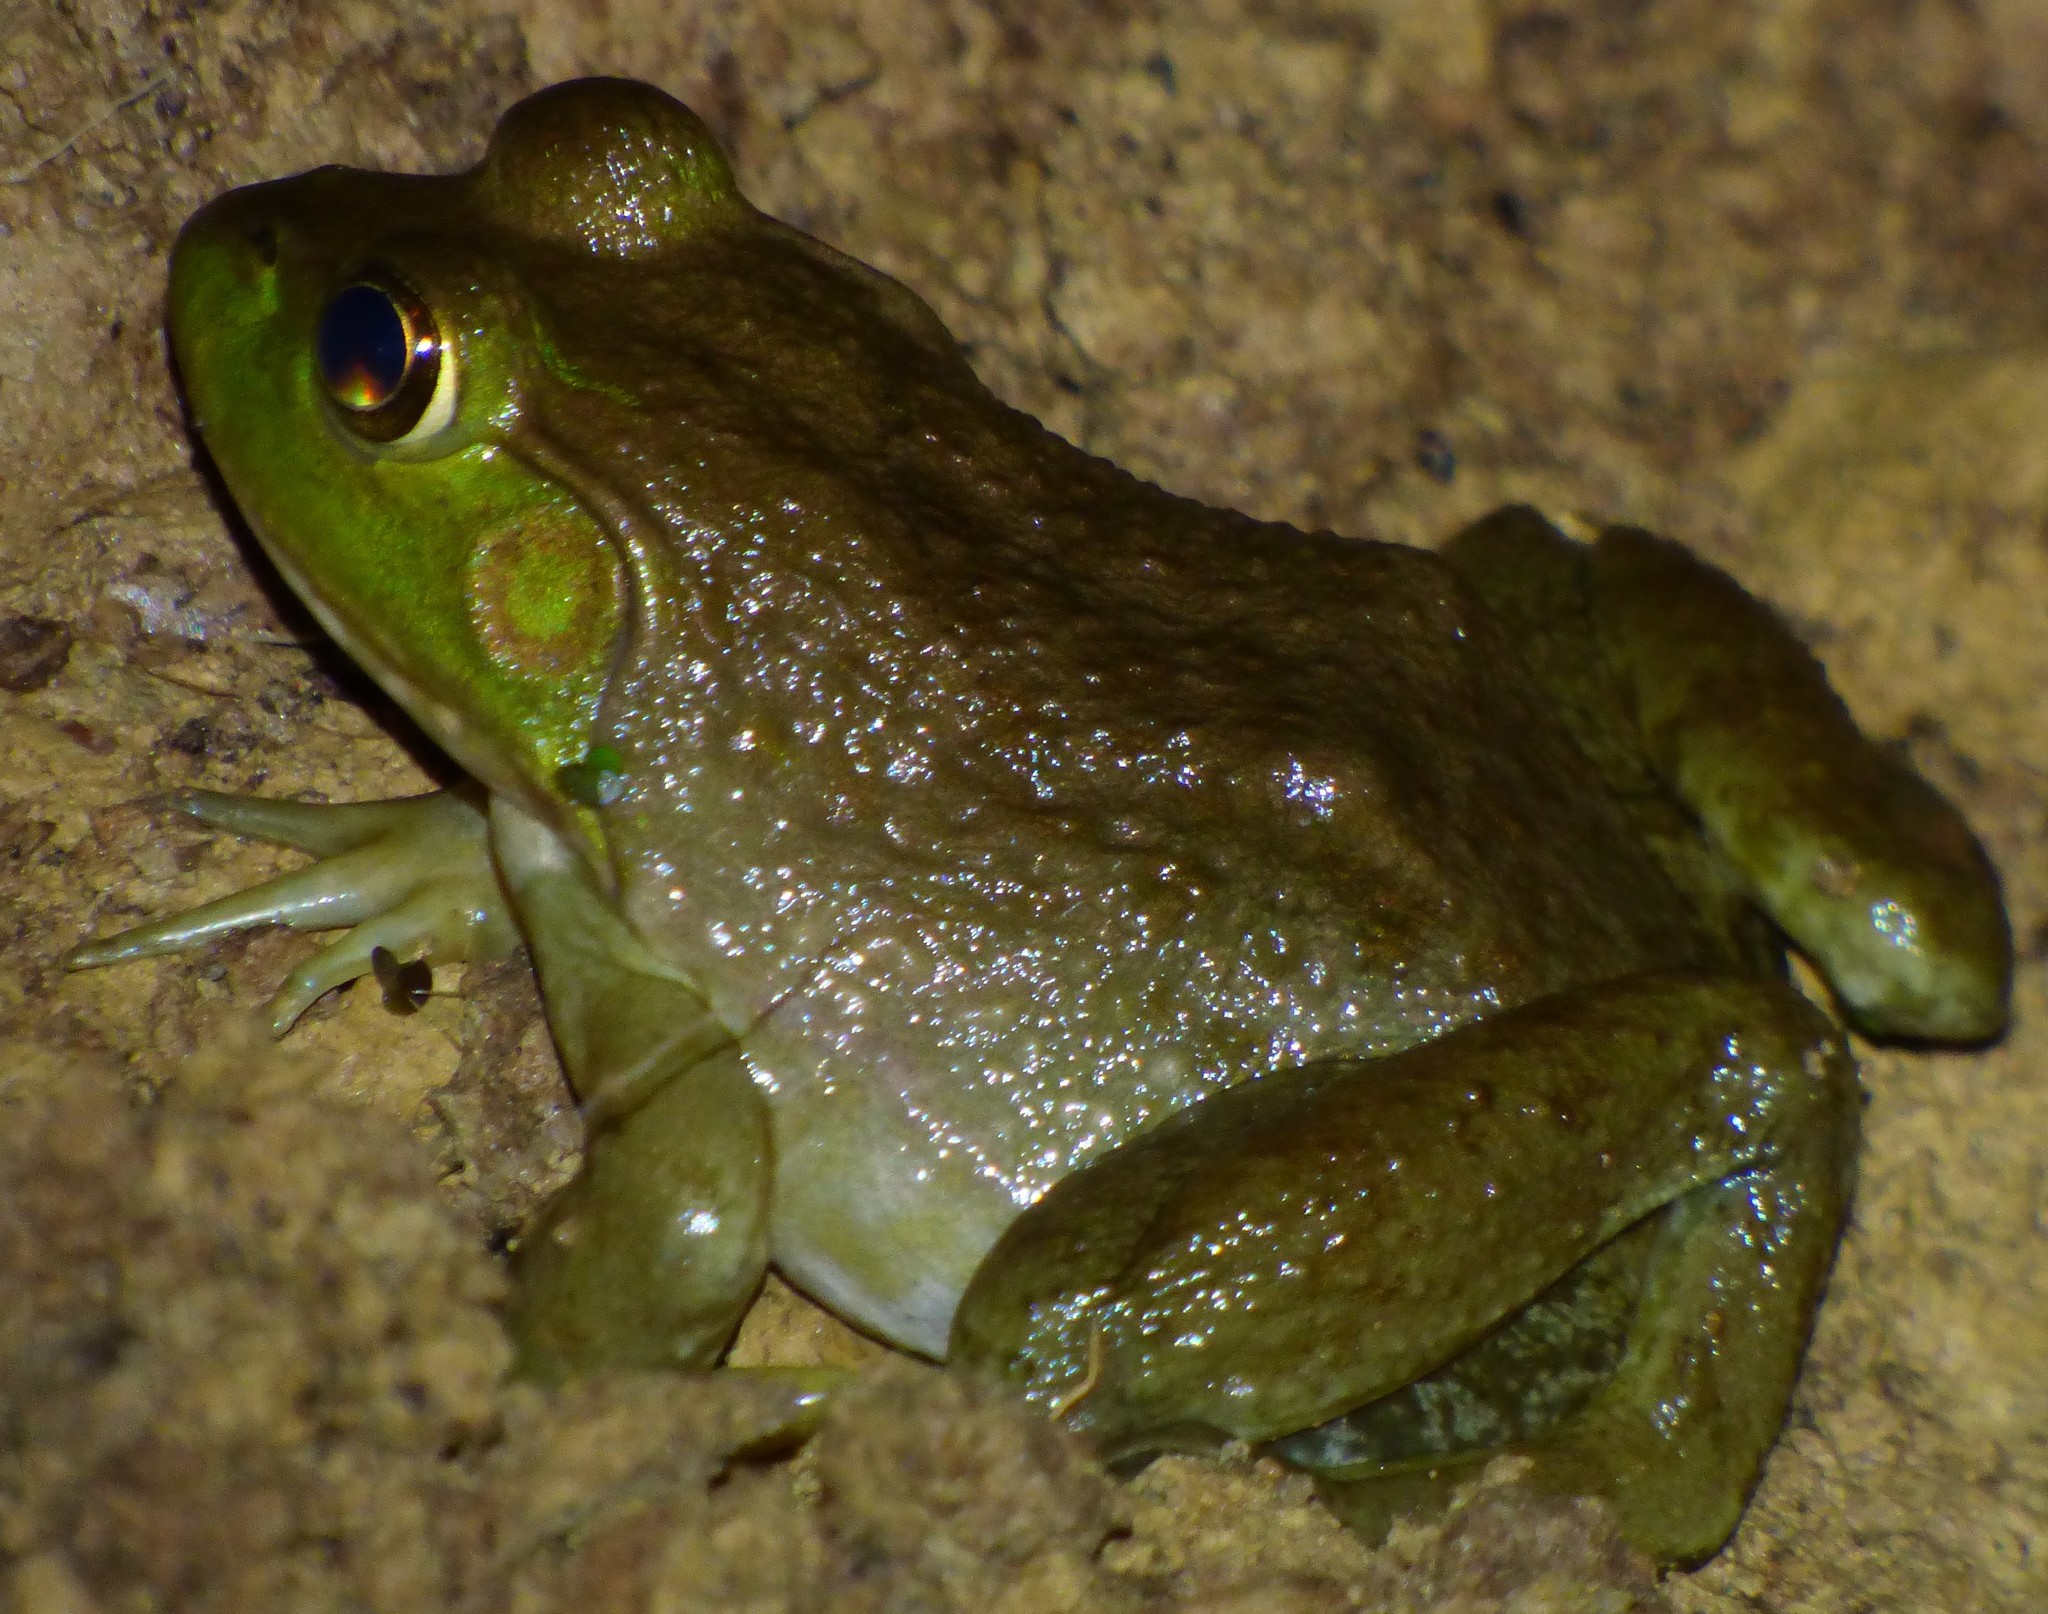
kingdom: Animalia
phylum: Chordata
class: Amphibia
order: Anura
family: Ranidae
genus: Lithobates
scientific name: Lithobates catesbeianus
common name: American bullfrog
